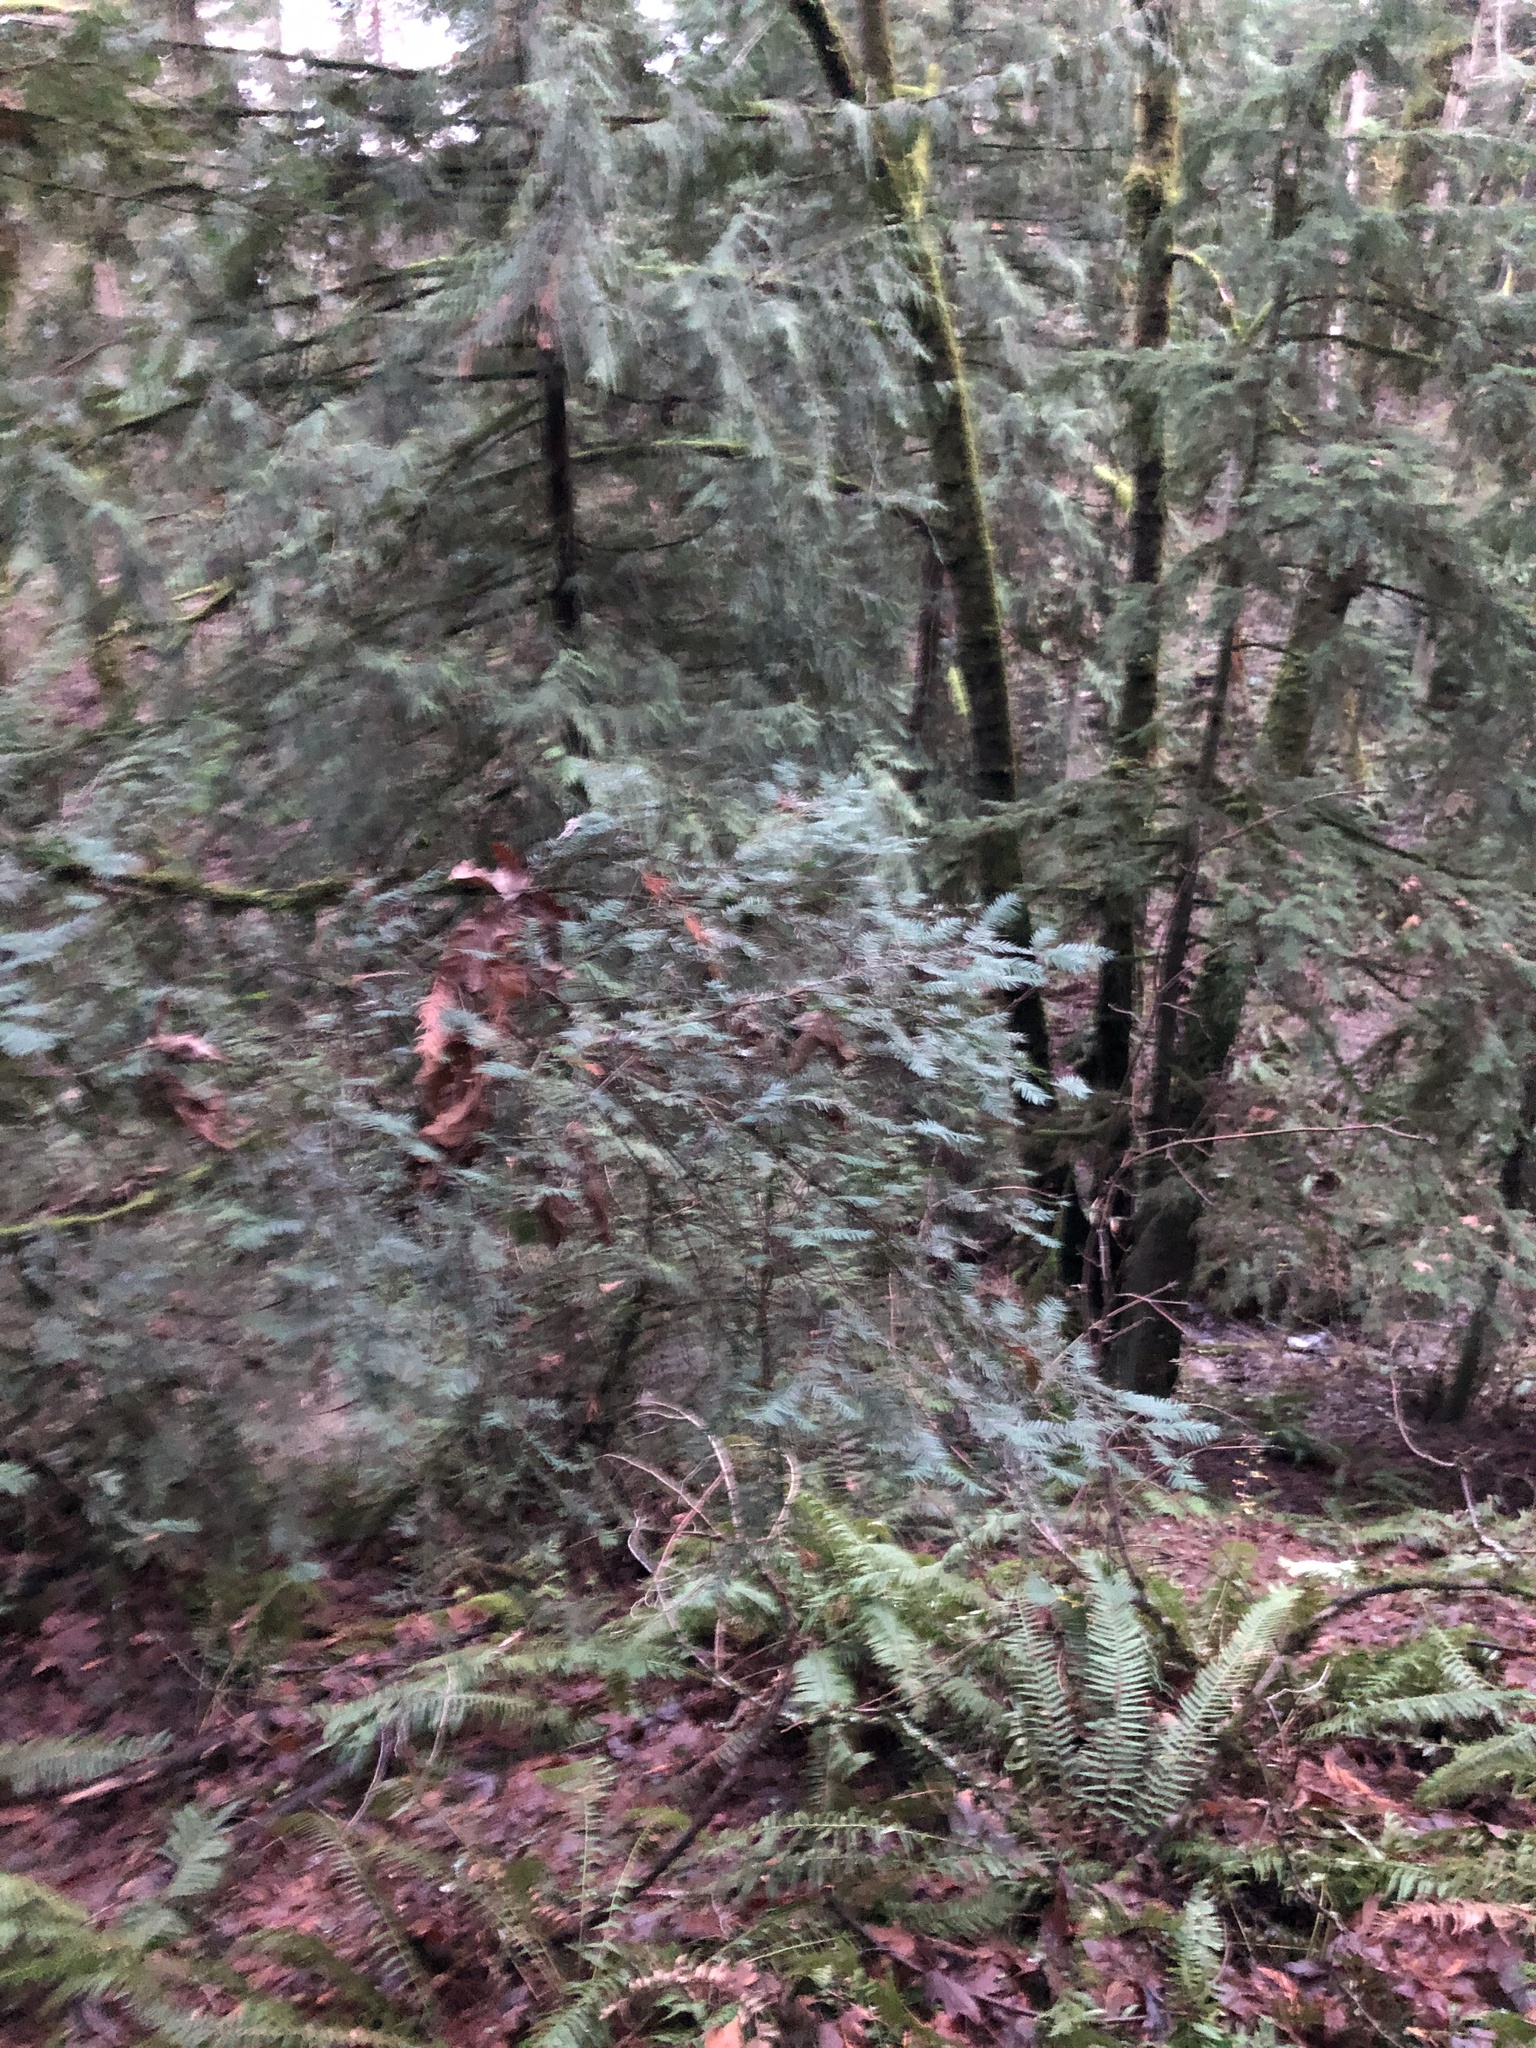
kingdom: Plantae
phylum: Tracheophyta
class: Pinopsida
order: Pinales
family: Taxaceae
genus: Taxus
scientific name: Taxus brevifolia
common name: Pacific yew
